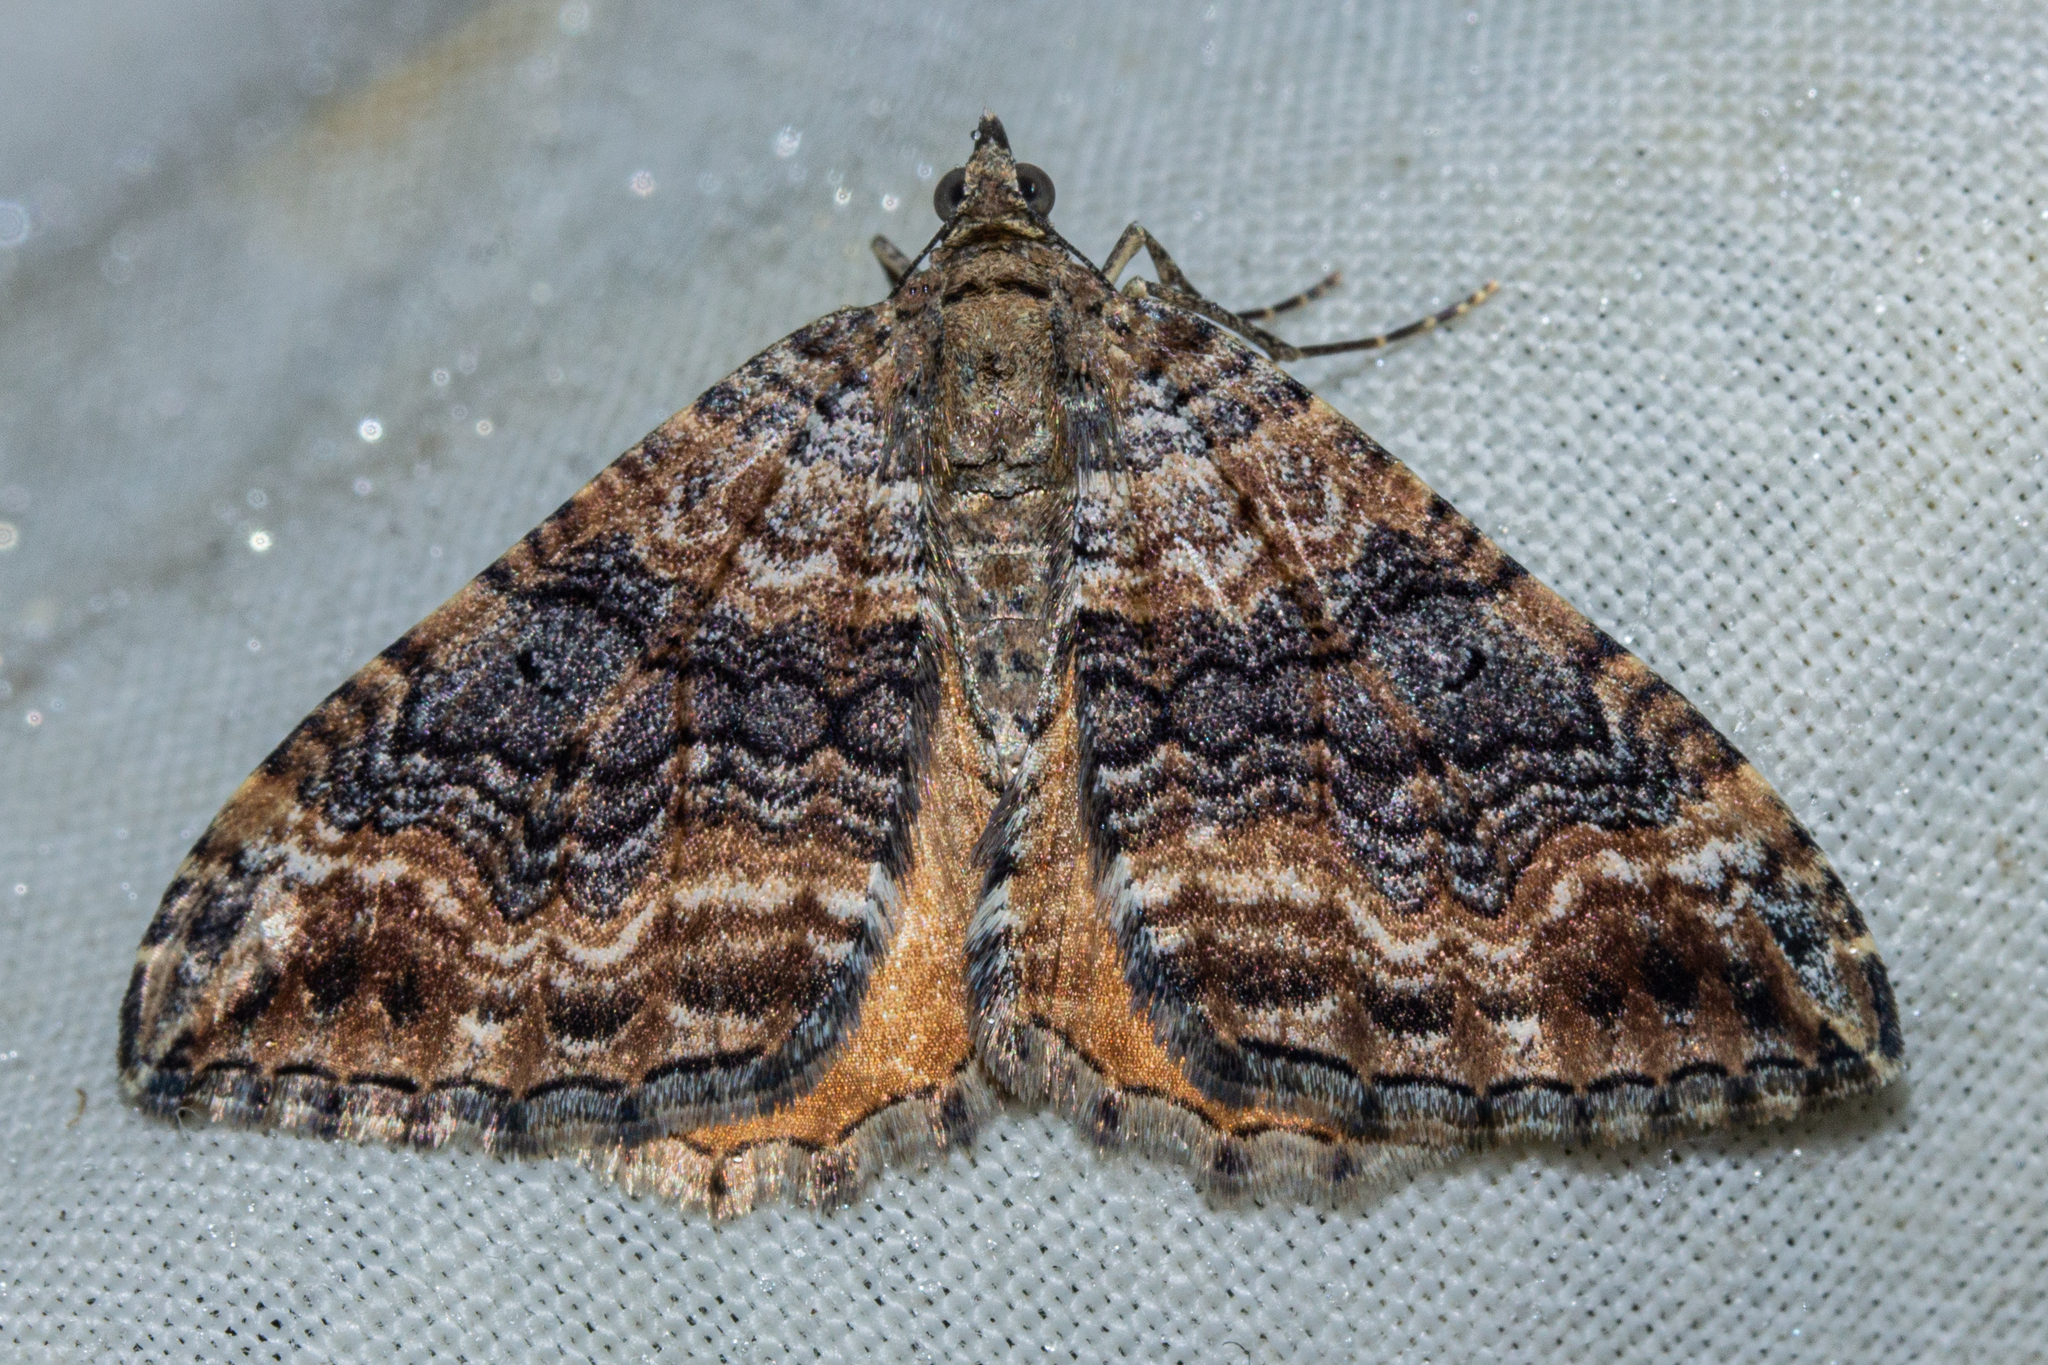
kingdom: Animalia
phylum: Arthropoda
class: Insecta
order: Lepidoptera
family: Geometridae
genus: Hydriomena
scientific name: Hydriomena deltoidata
